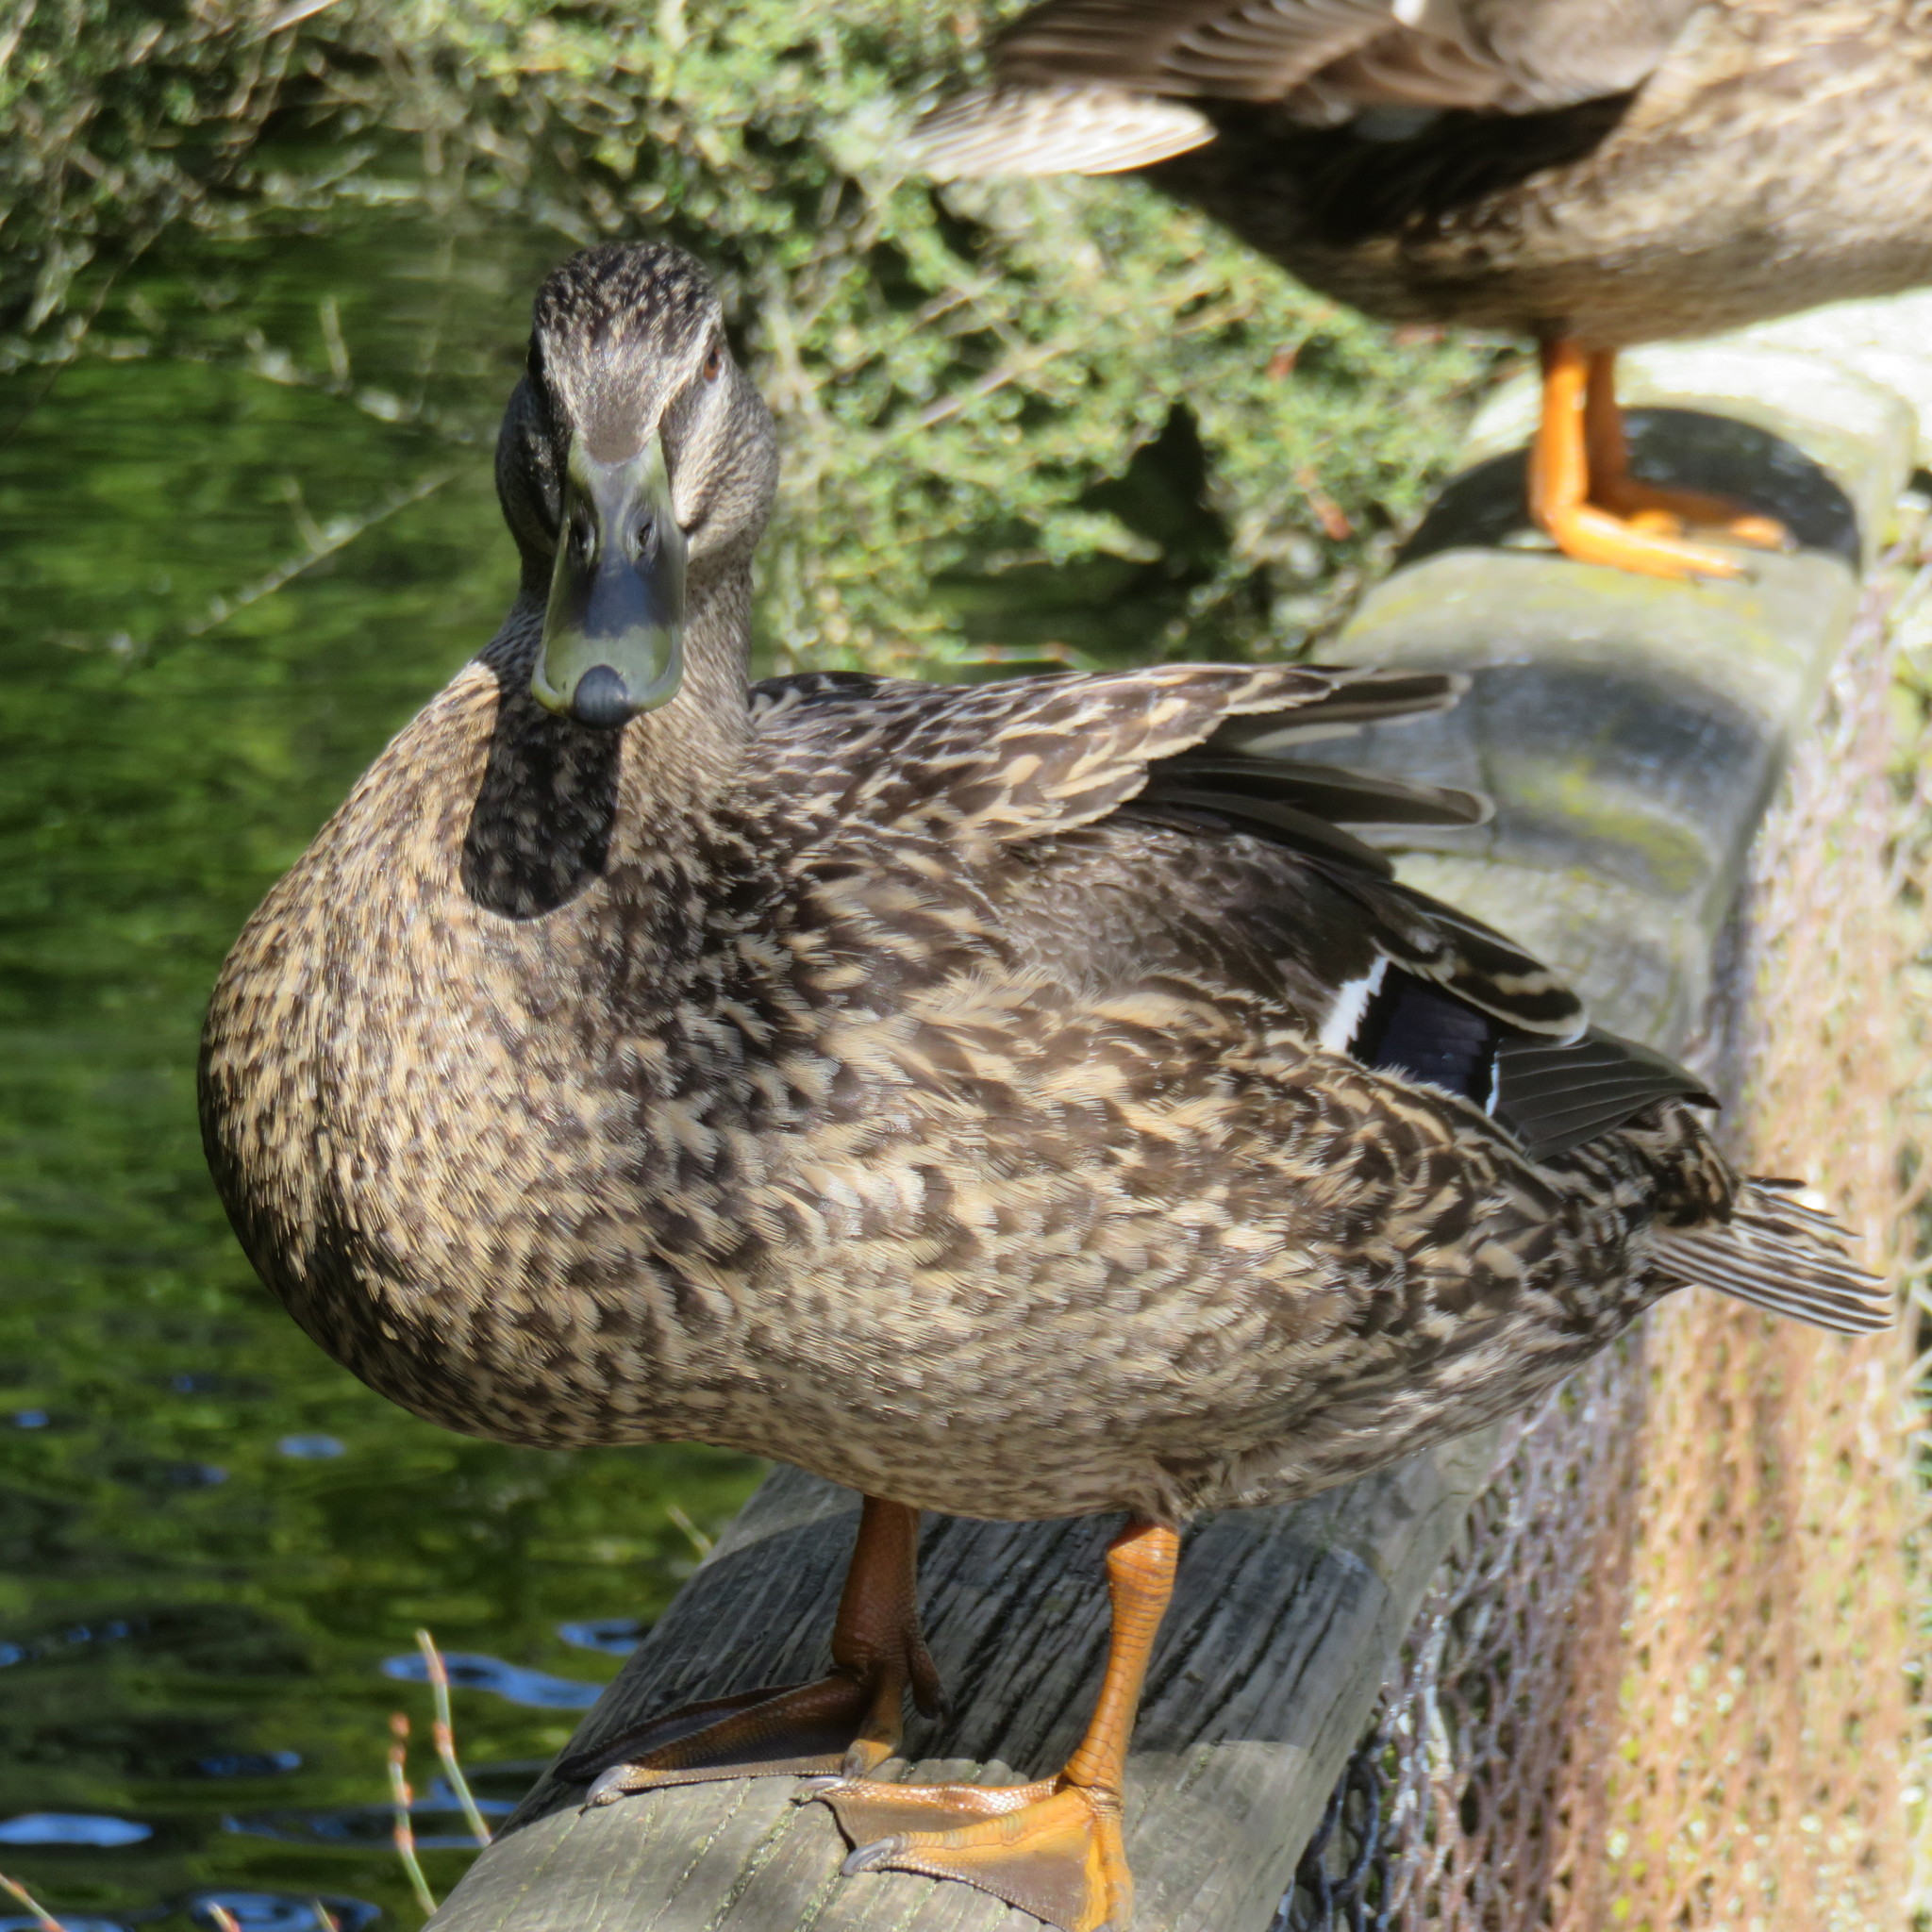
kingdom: Animalia
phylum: Chordata
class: Aves
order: Anseriformes
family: Anatidae
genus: Anas
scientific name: Anas
